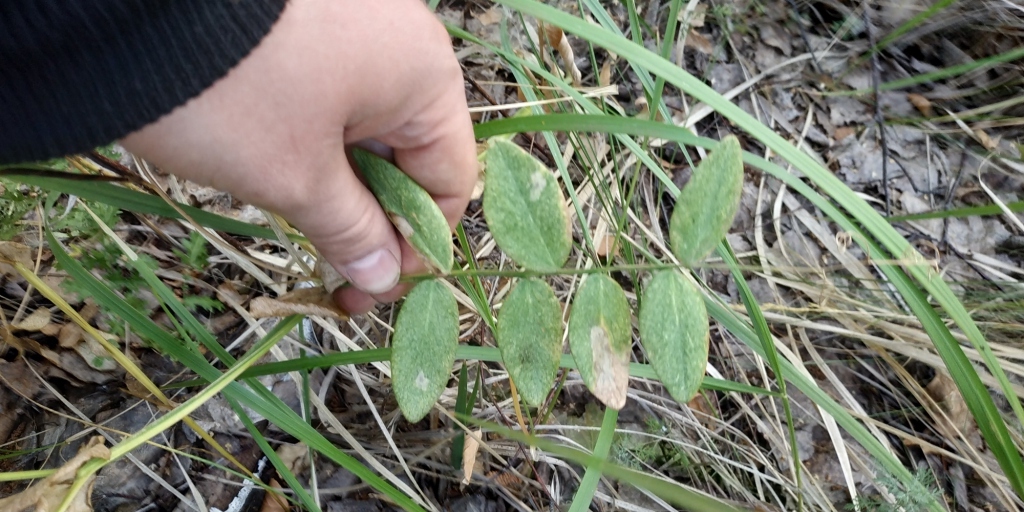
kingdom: Plantae
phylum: Tracheophyta
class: Magnoliopsida
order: Fabales
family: Fabaceae
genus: Vicia
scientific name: Vicia sepium
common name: Bush vetch
